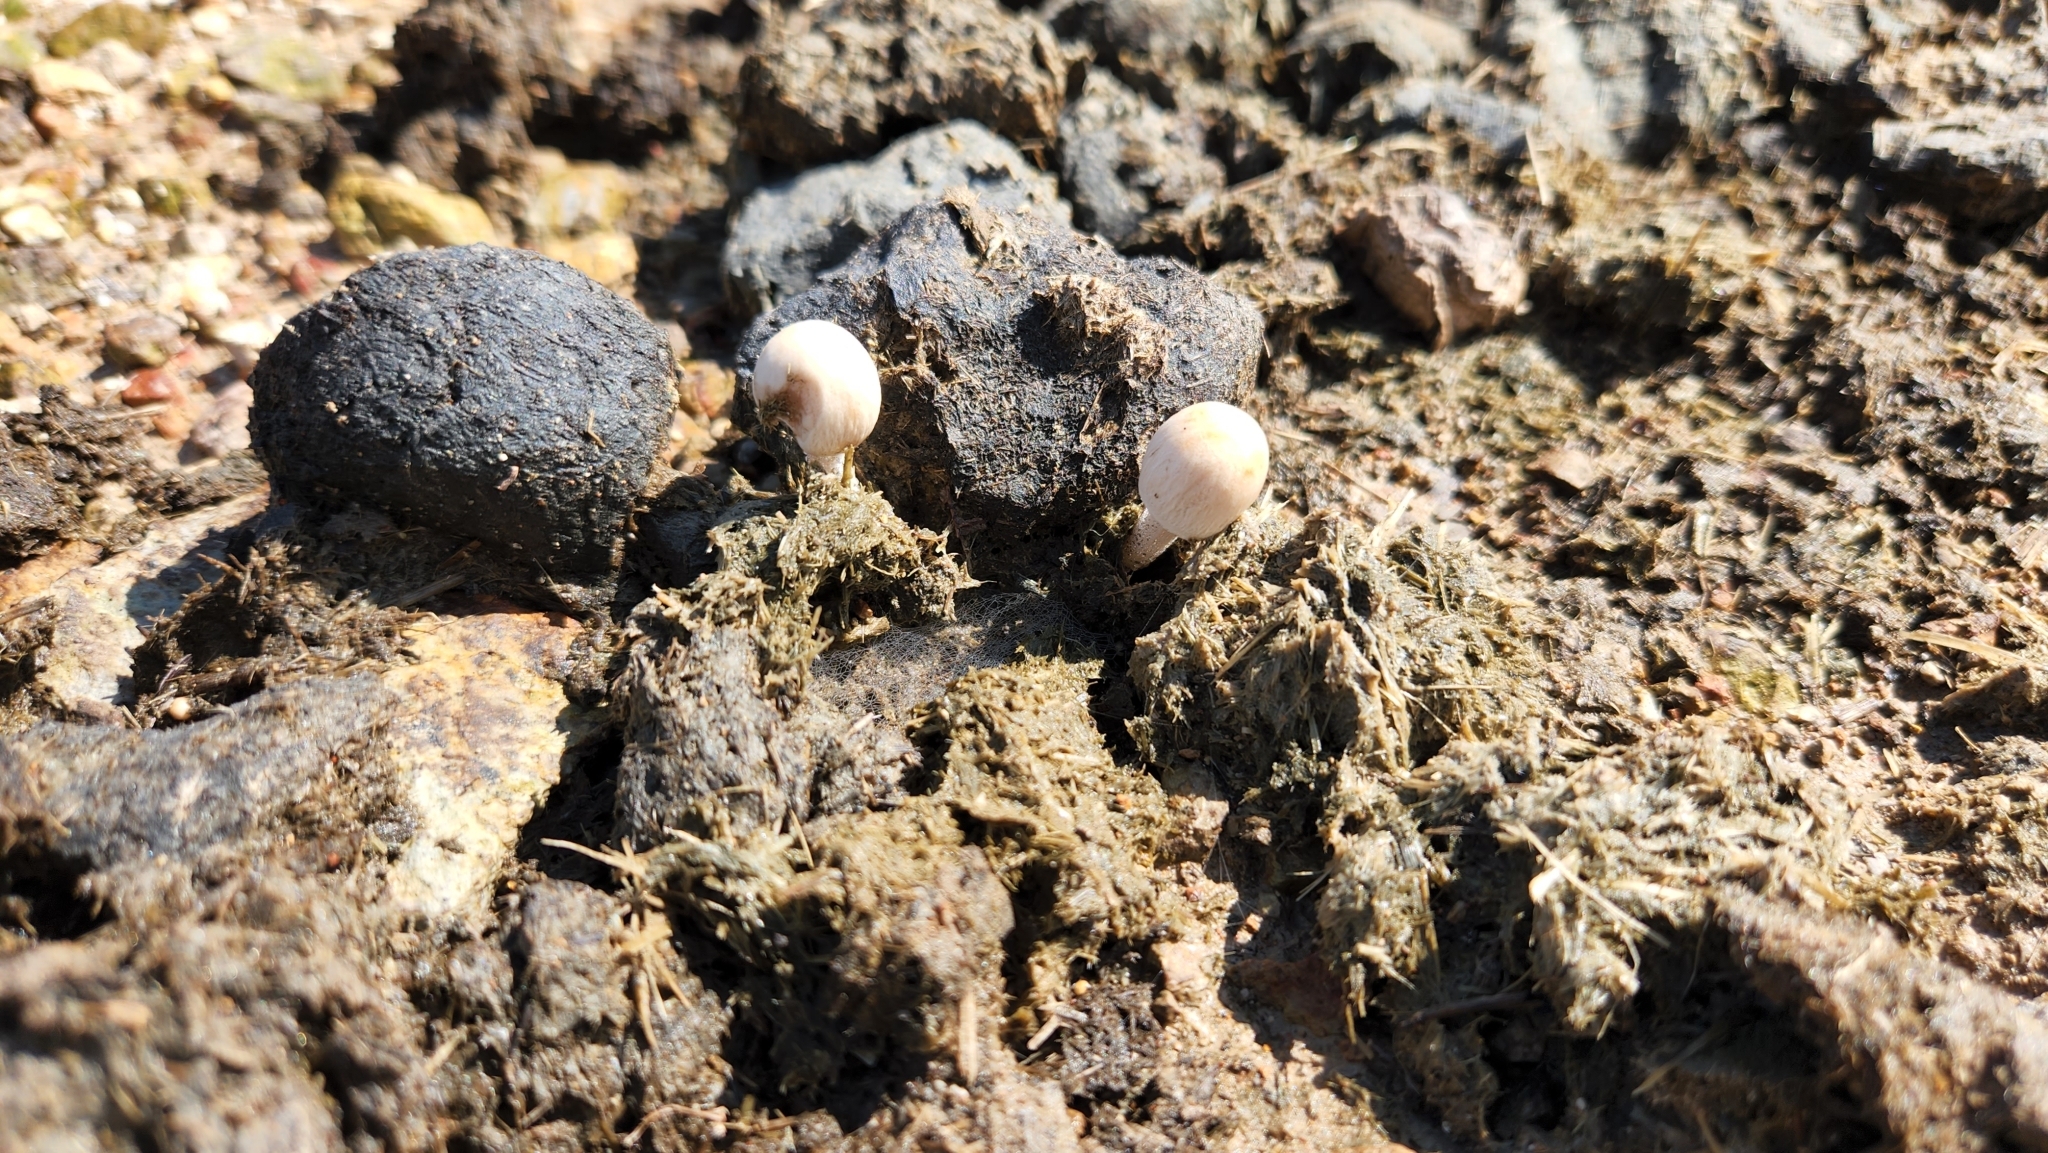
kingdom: Fungi
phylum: Basidiomycota
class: Agaricomycetes
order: Agaricales
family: Bolbitiaceae
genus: Panaeolus
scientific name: Panaeolus antillarum
